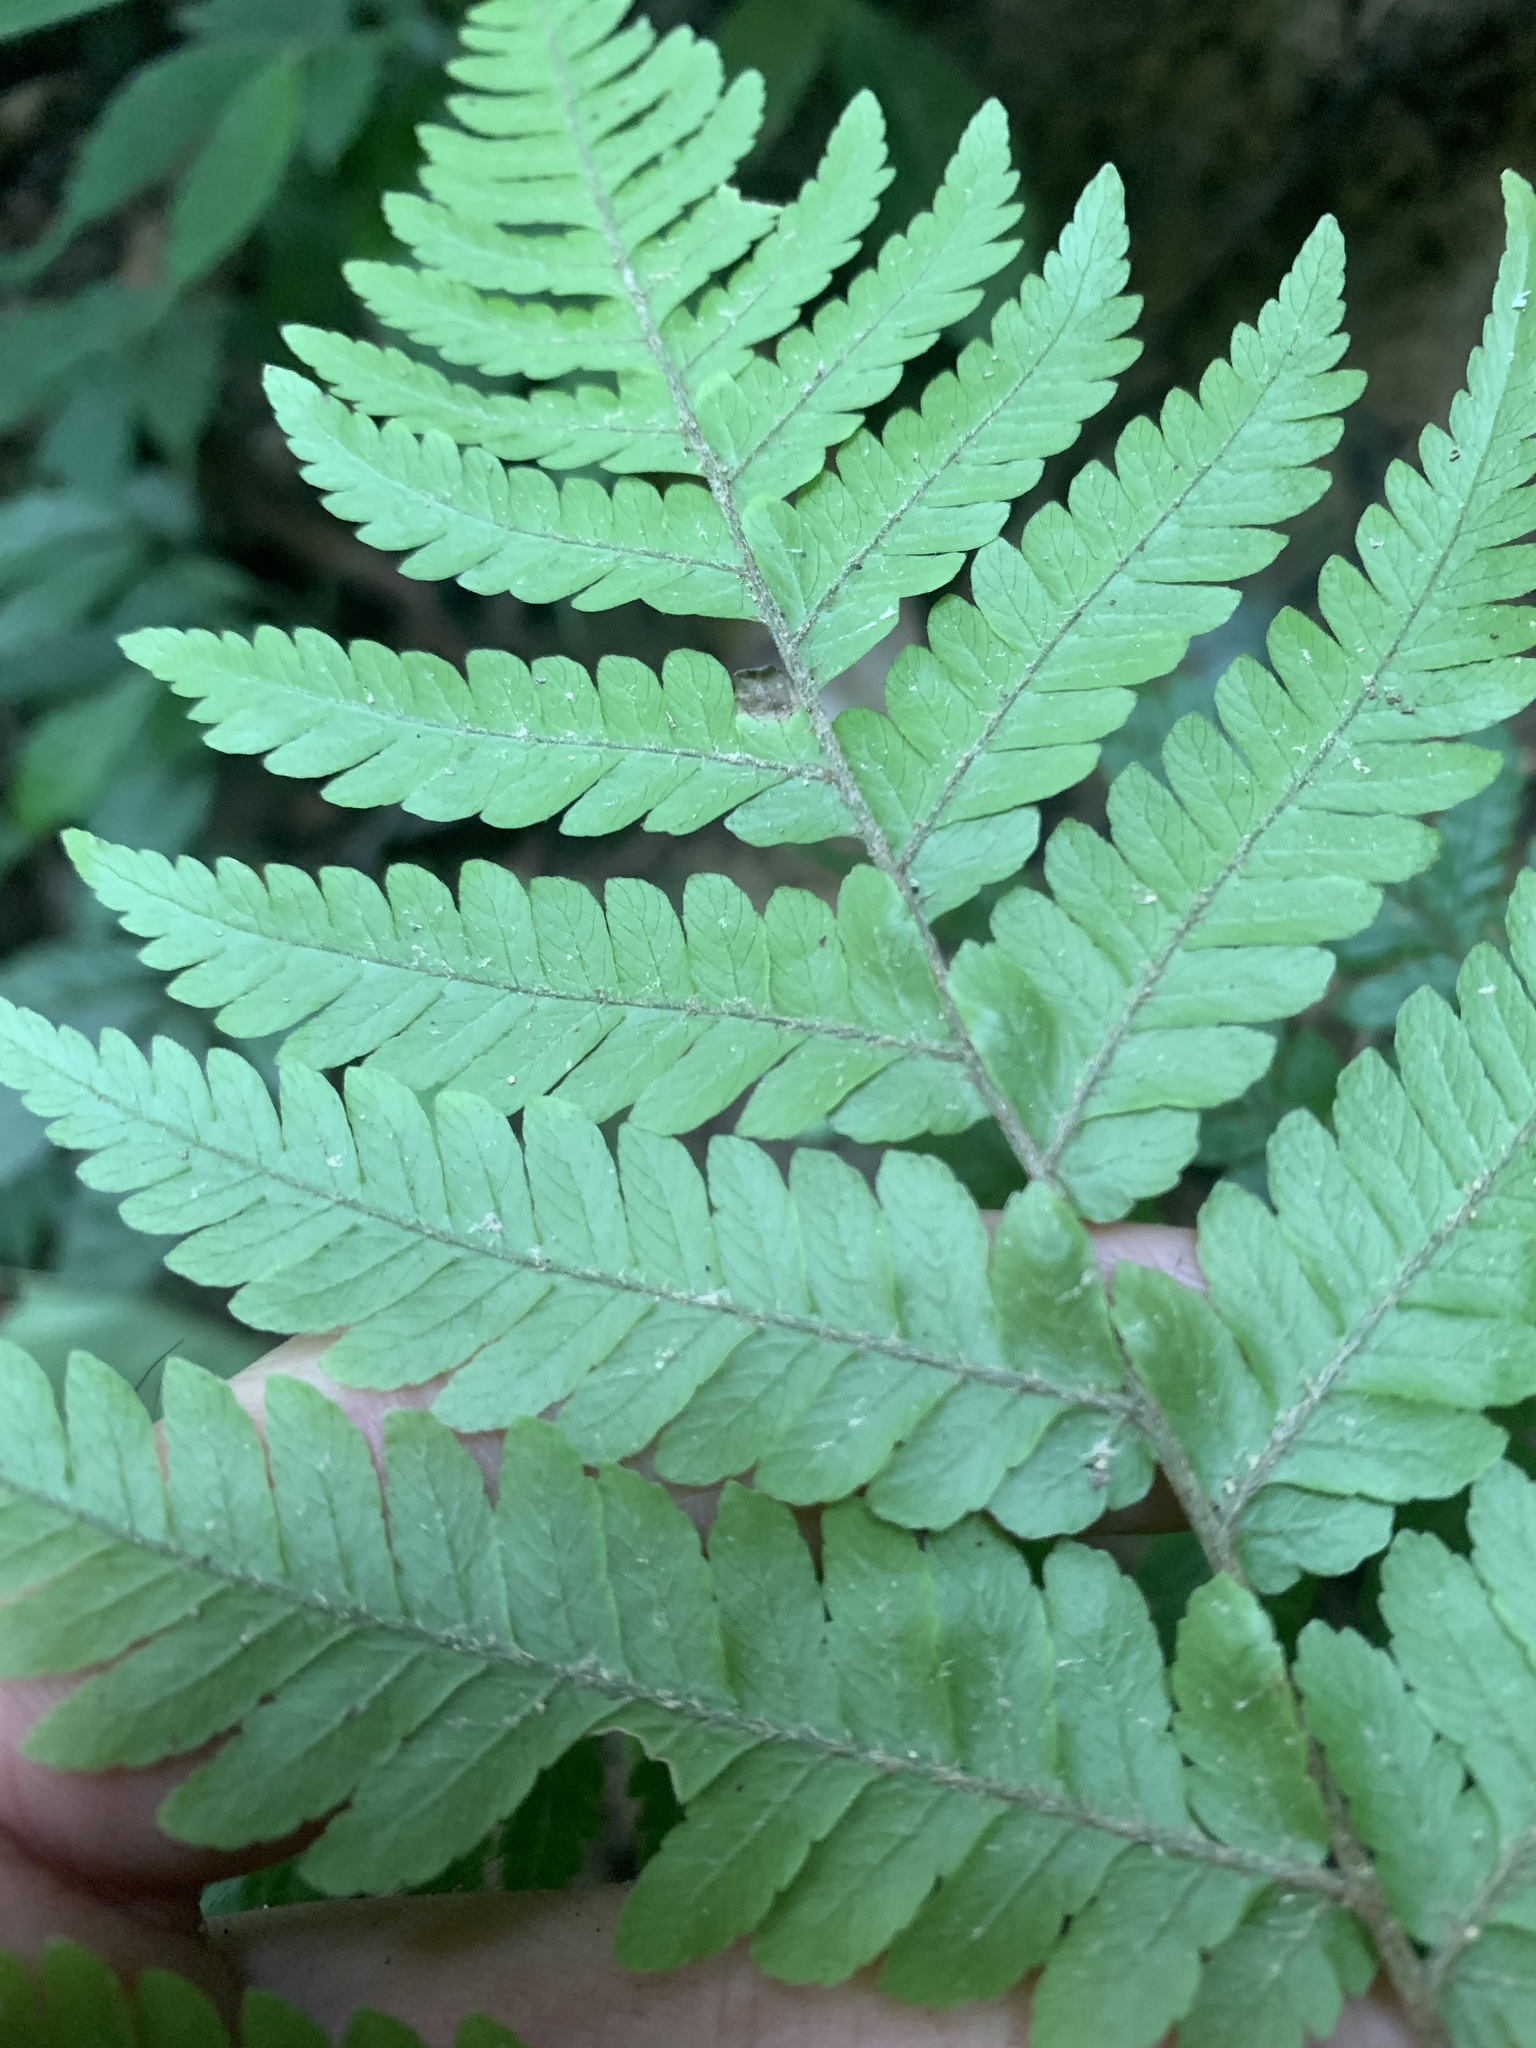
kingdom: Plantae
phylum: Tracheophyta
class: Polypodiopsida
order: Polypodiales
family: Dryopteridaceae
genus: Ctenitis
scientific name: Ctenitis subglandulosa
